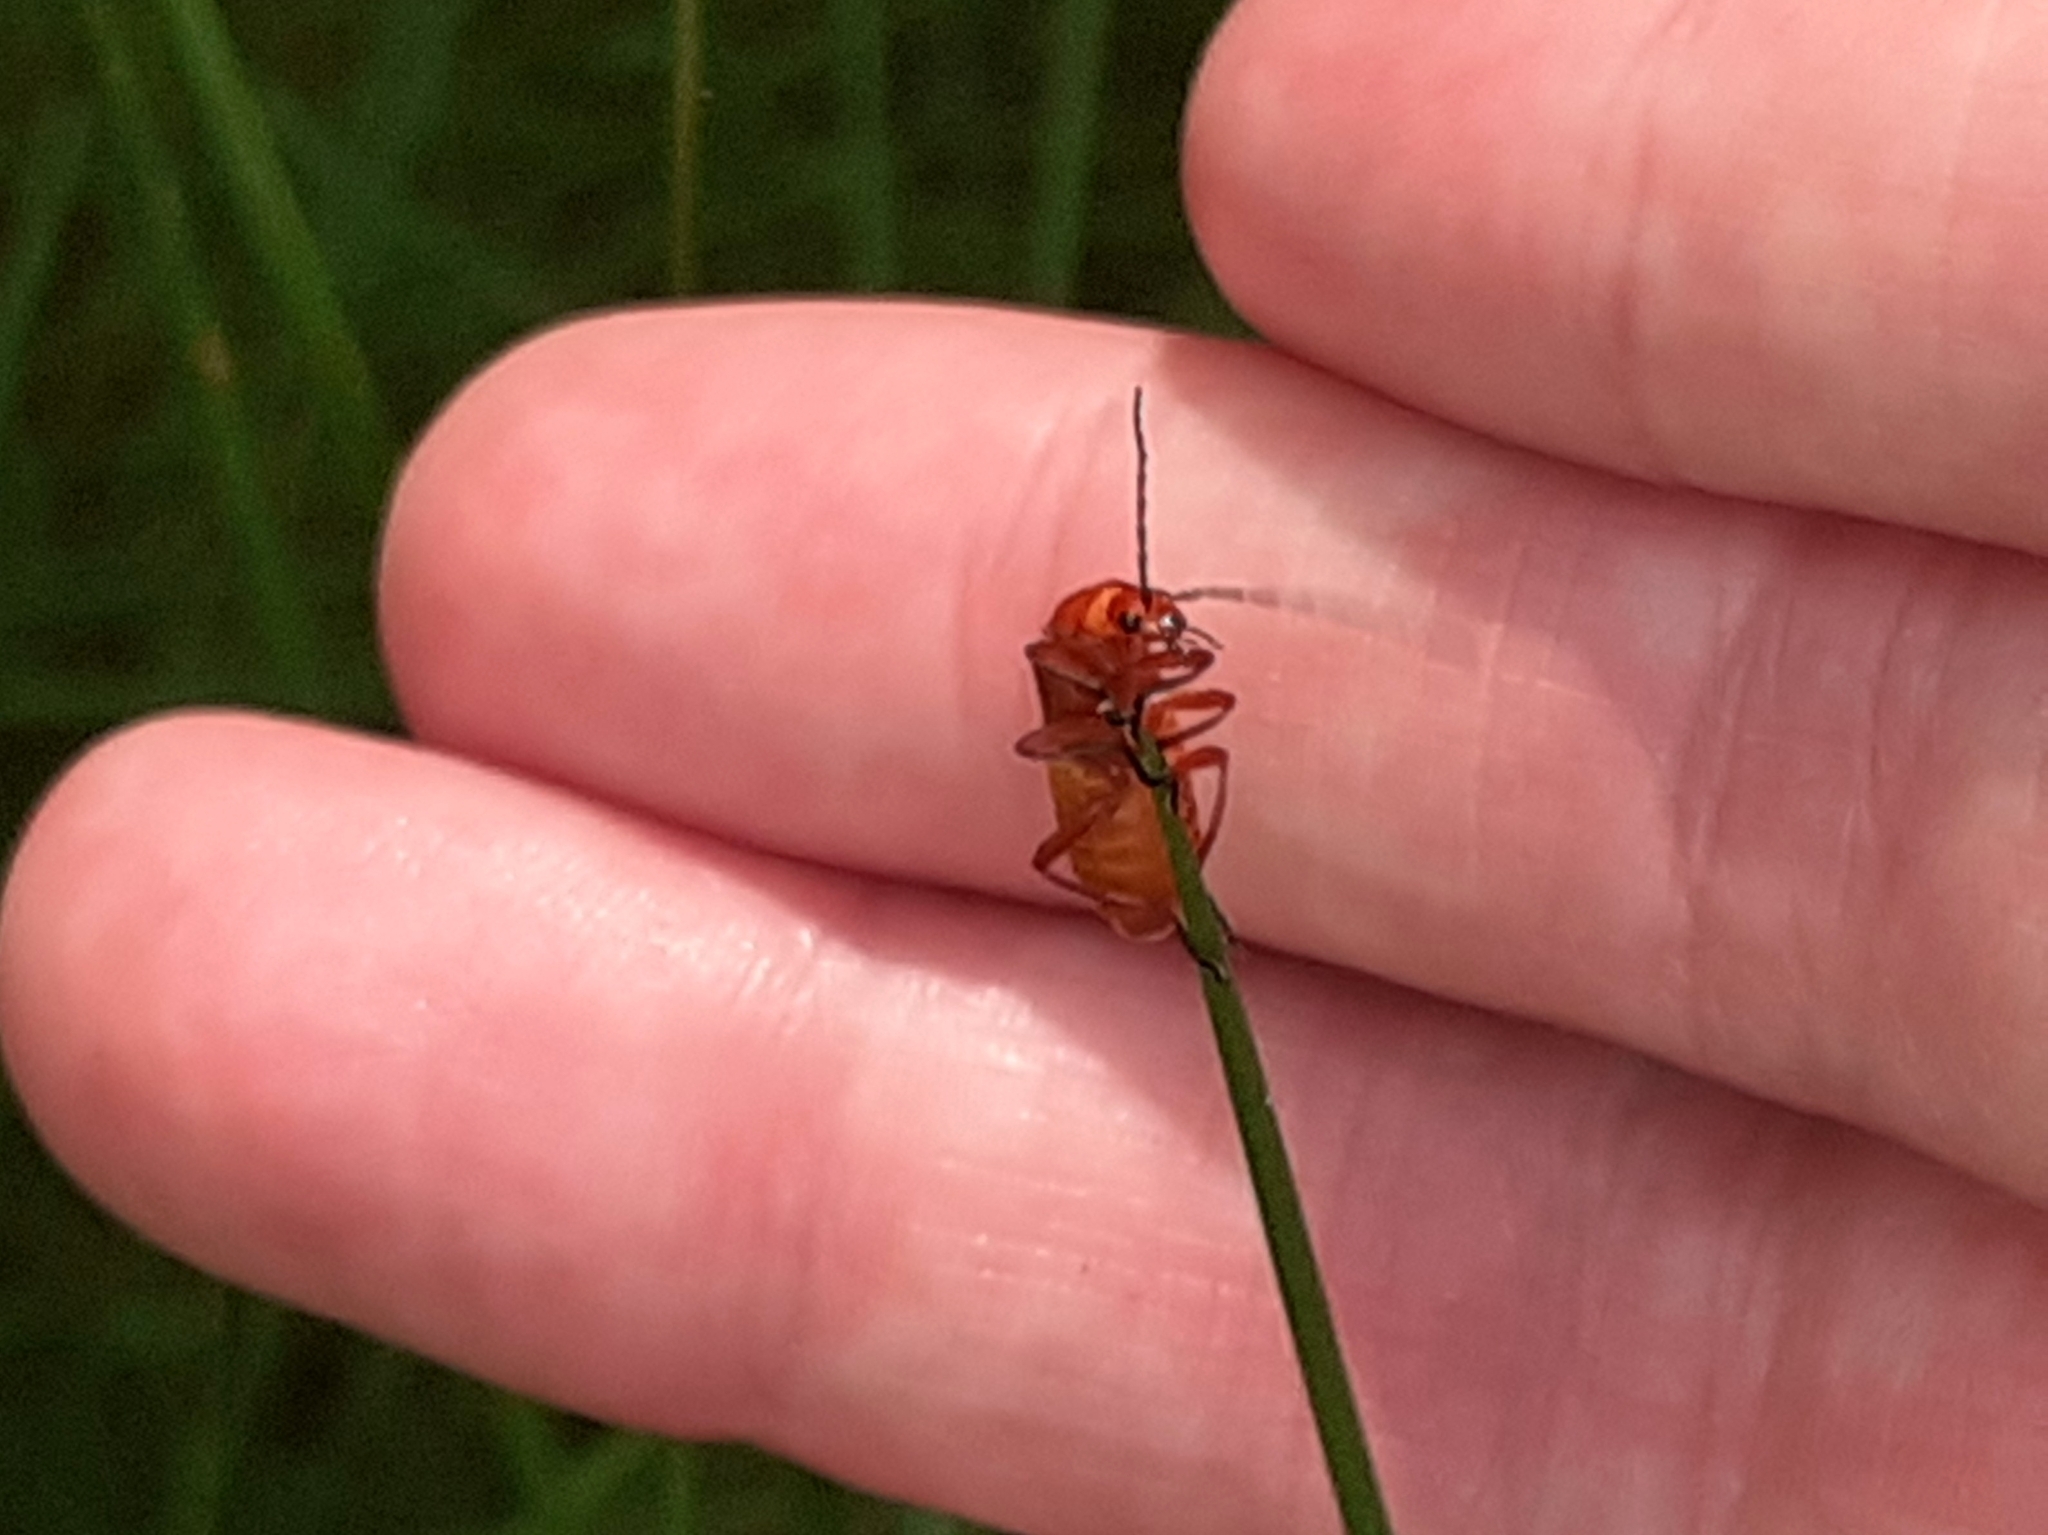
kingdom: Animalia
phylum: Arthropoda
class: Insecta
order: Coleoptera
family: Cantharidae
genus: Rhagonycha
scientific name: Rhagonycha fulva
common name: Common red soldier beetle
